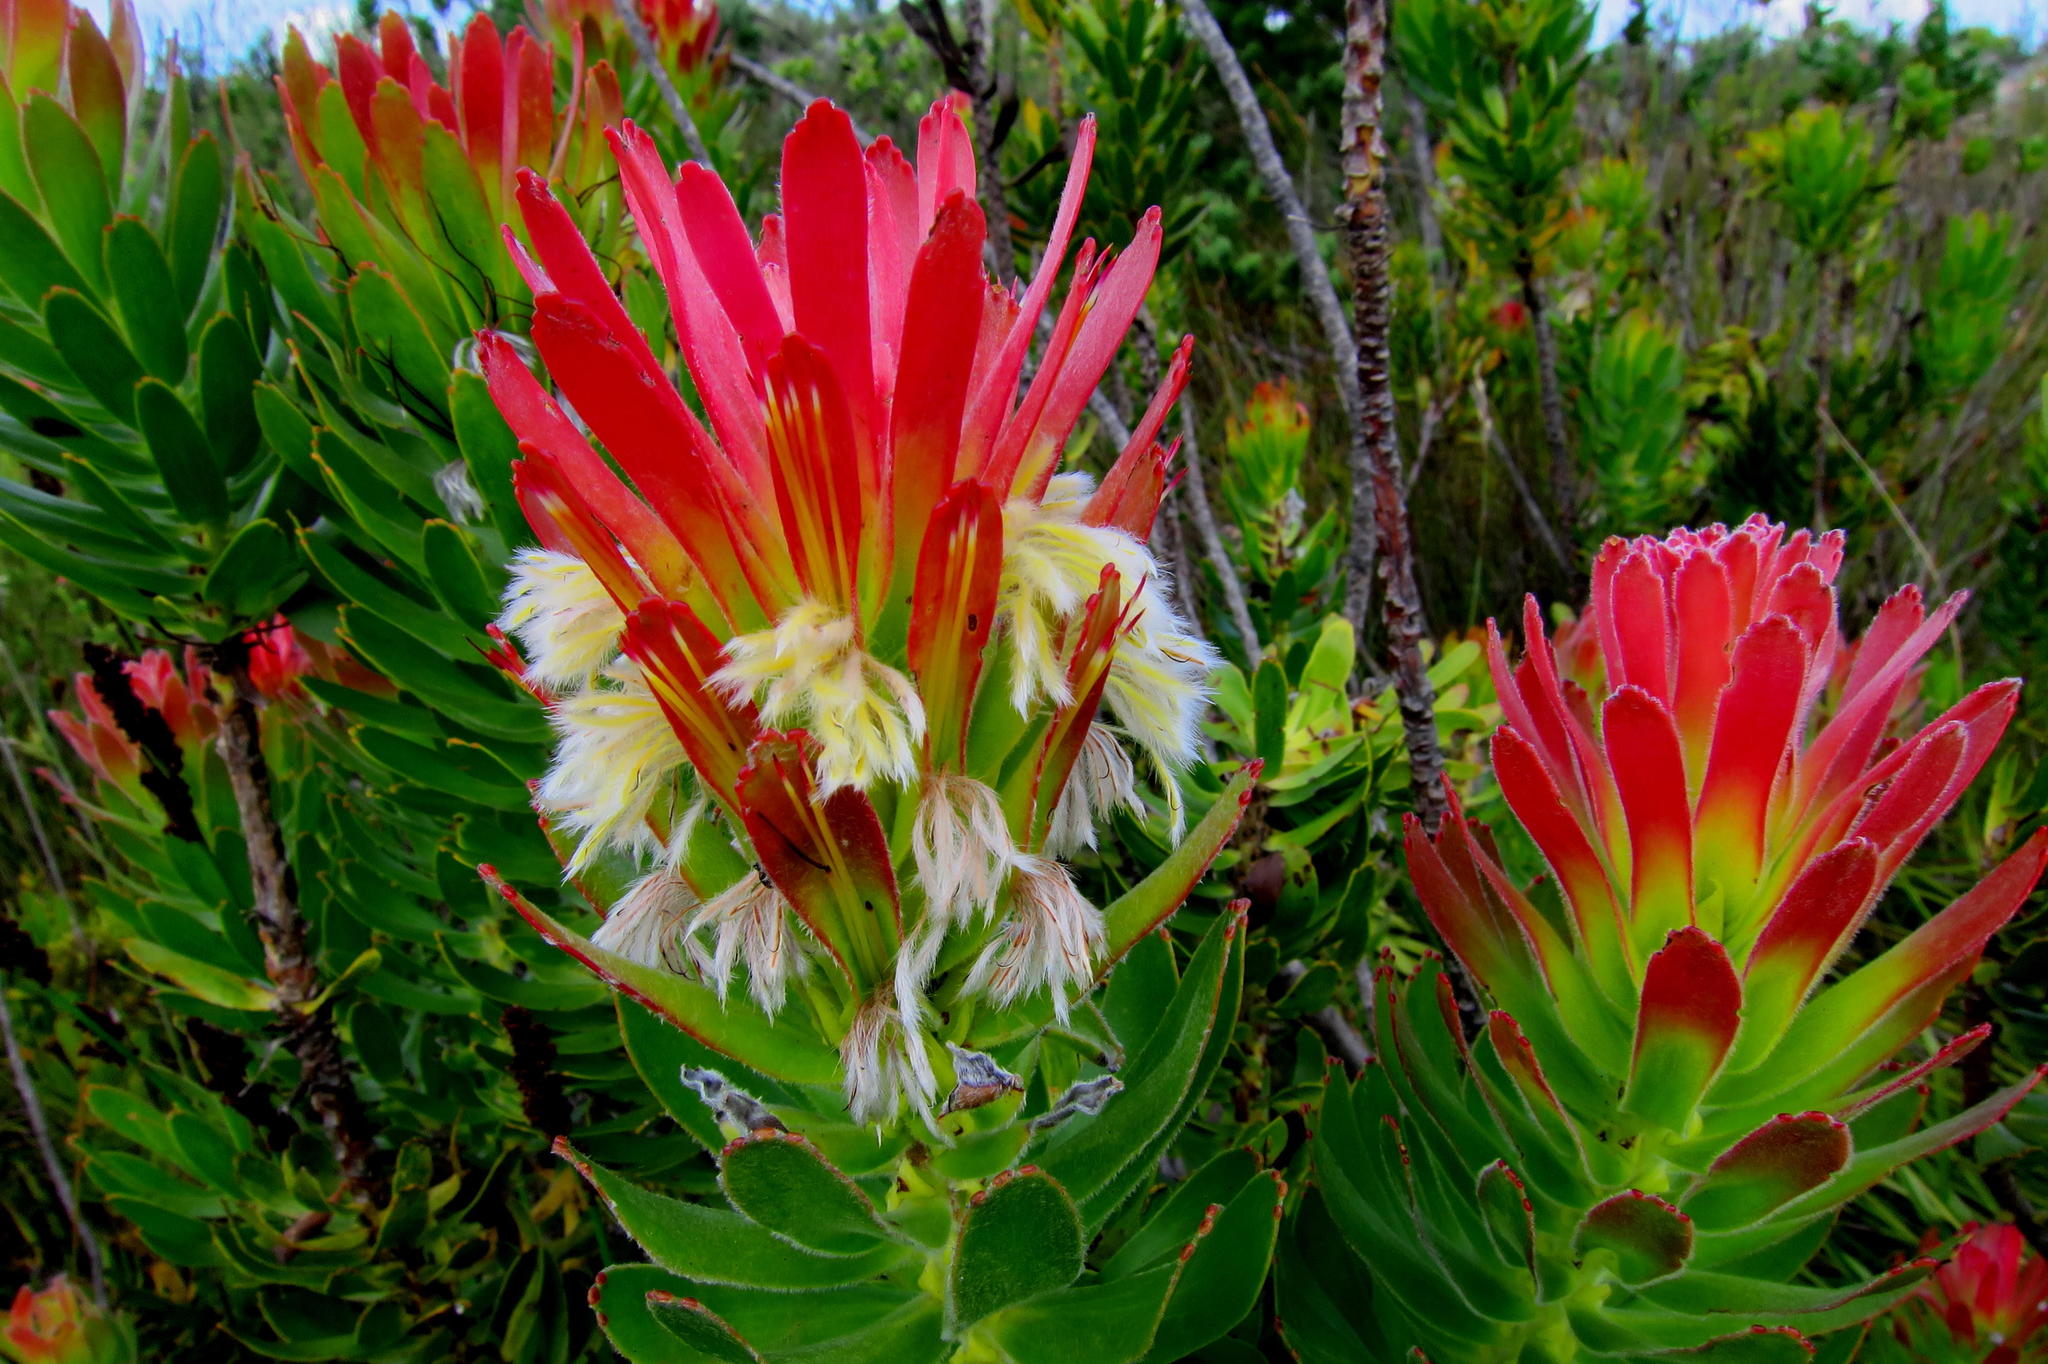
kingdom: Plantae
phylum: Tracheophyta
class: Magnoliopsida
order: Proteales
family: Proteaceae
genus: Mimetes
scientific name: Mimetes cucullatus
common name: Common pagoda
